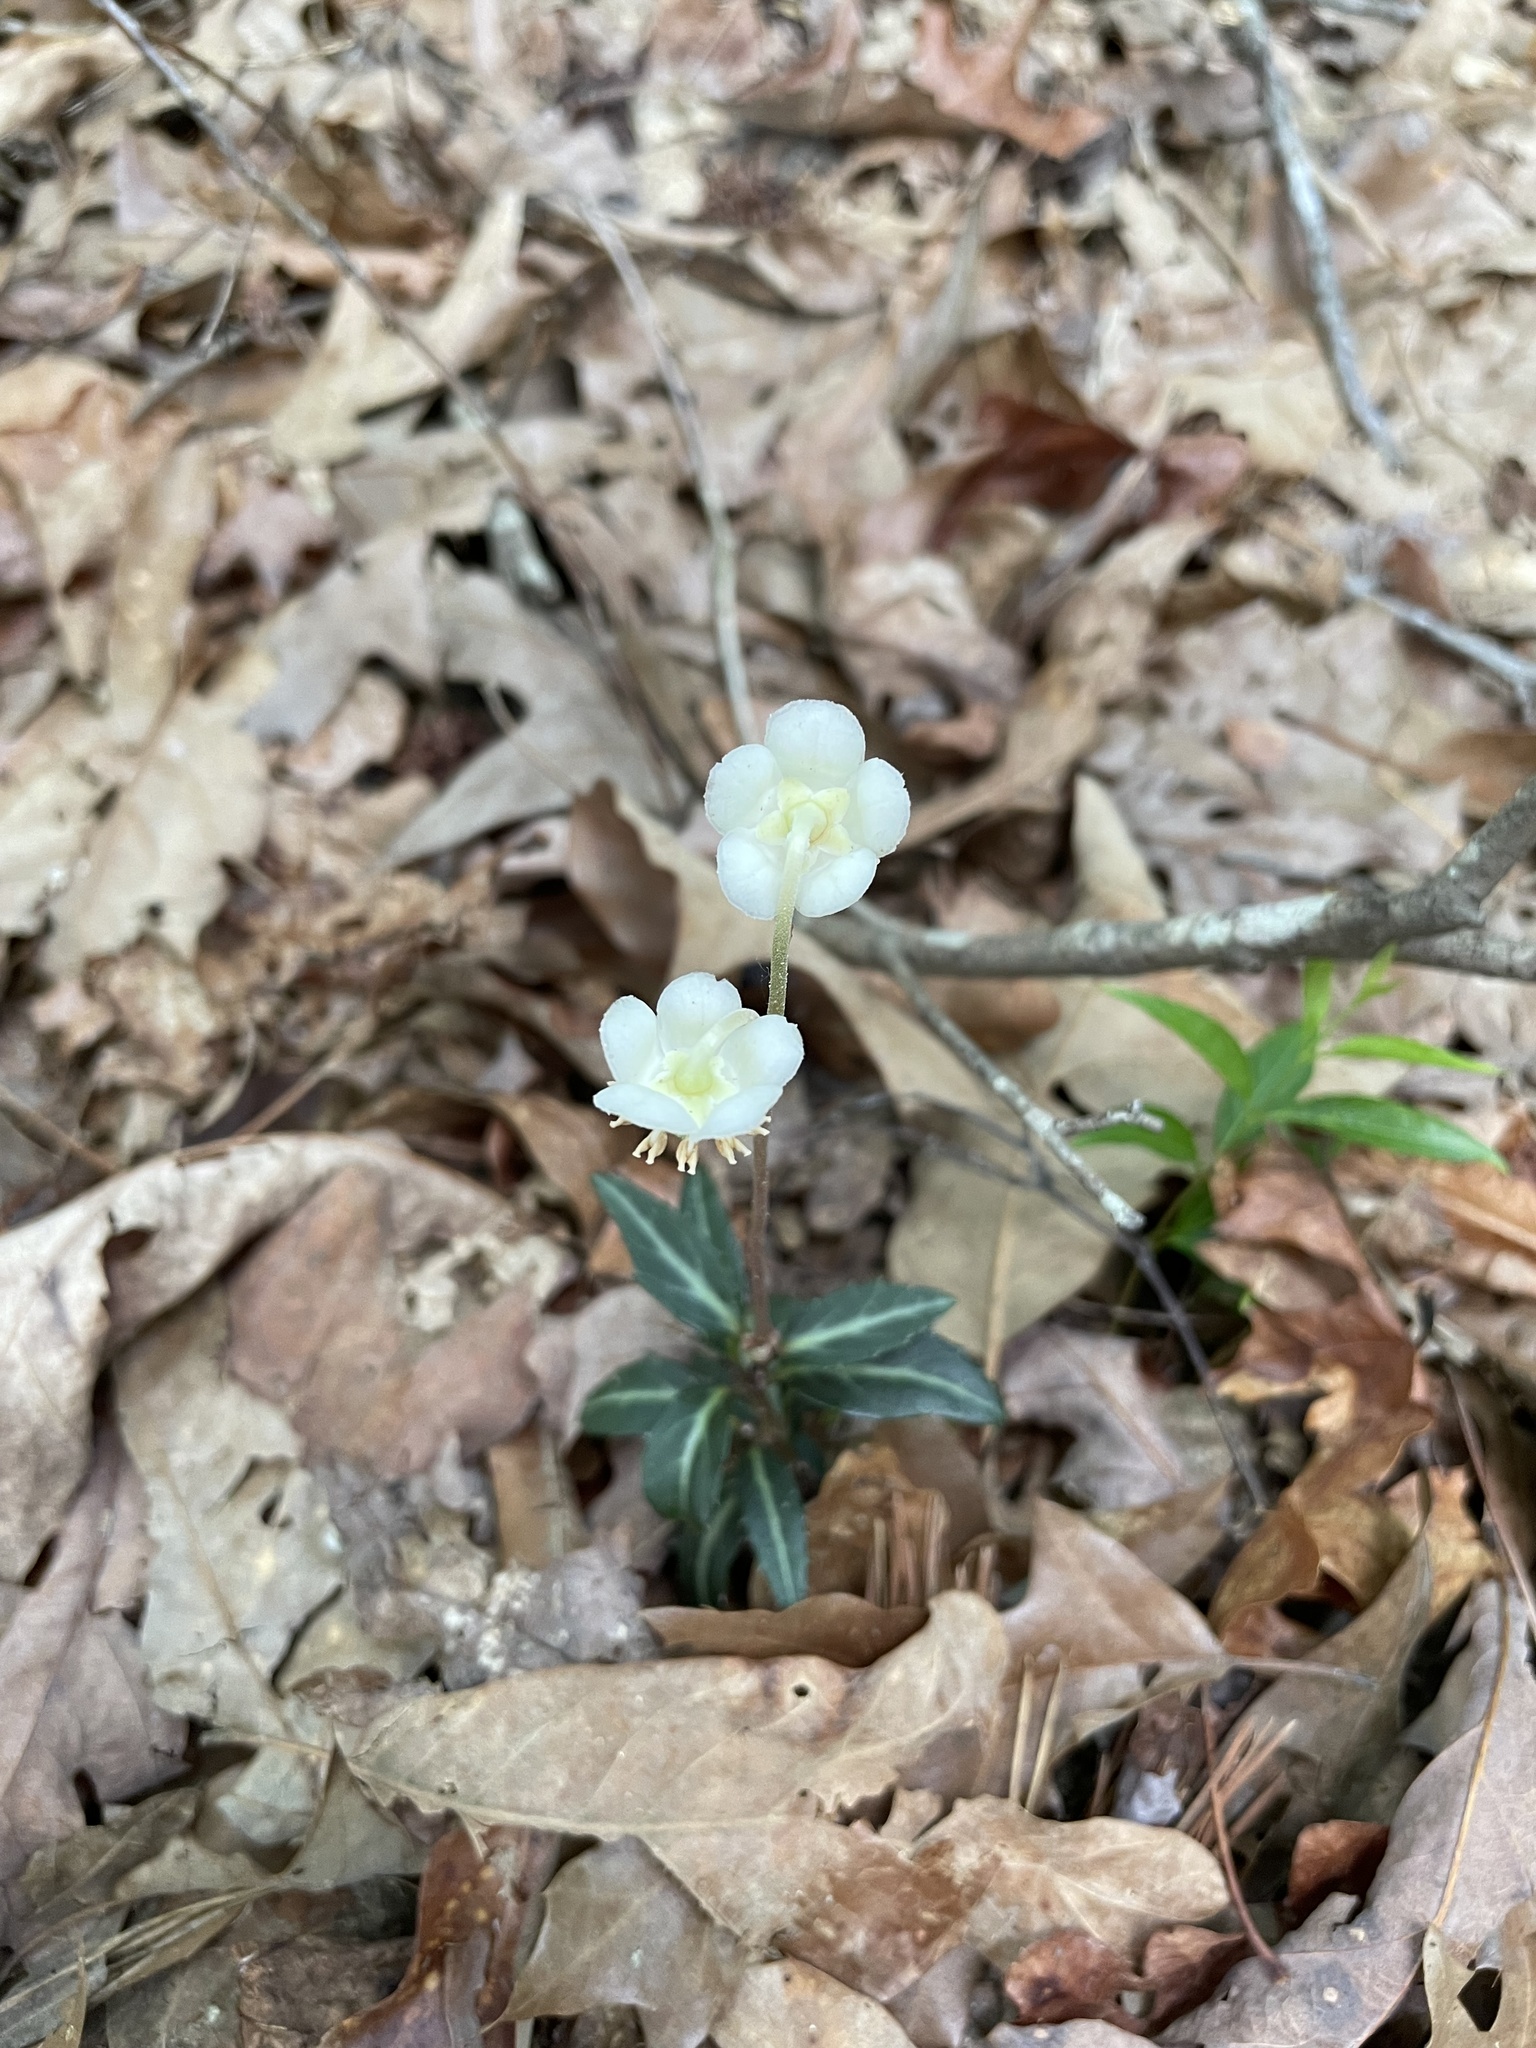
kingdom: Plantae
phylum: Tracheophyta
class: Magnoliopsida
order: Ericales
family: Ericaceae
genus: Chimaphila
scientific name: Chimaphila maculata
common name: Spotted pipsissewa
